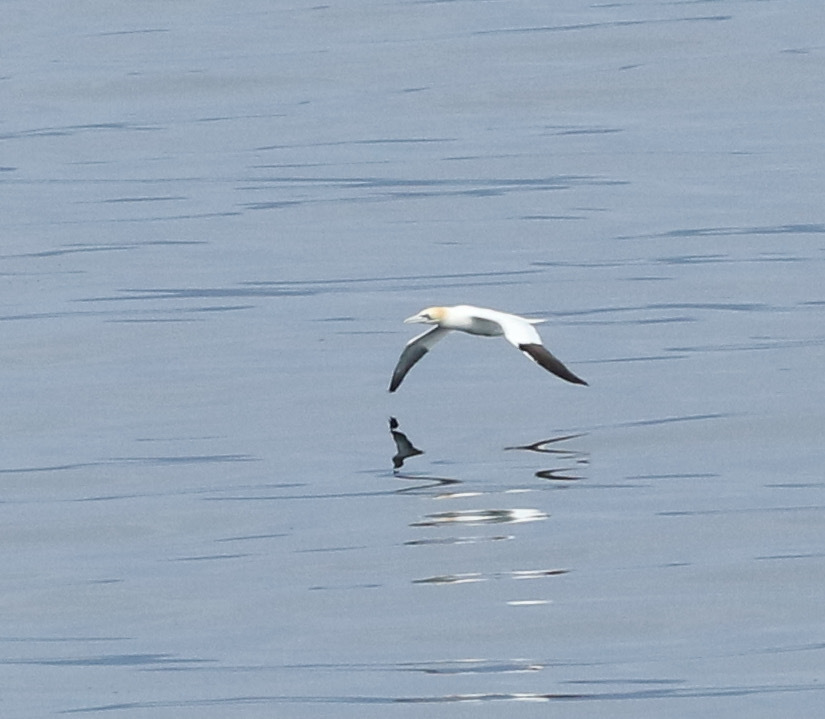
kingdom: Animalia
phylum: Chordata
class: Aves
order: Suliformes
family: Sulidae
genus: Morus
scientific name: Morus bassanus
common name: Northern gannet
